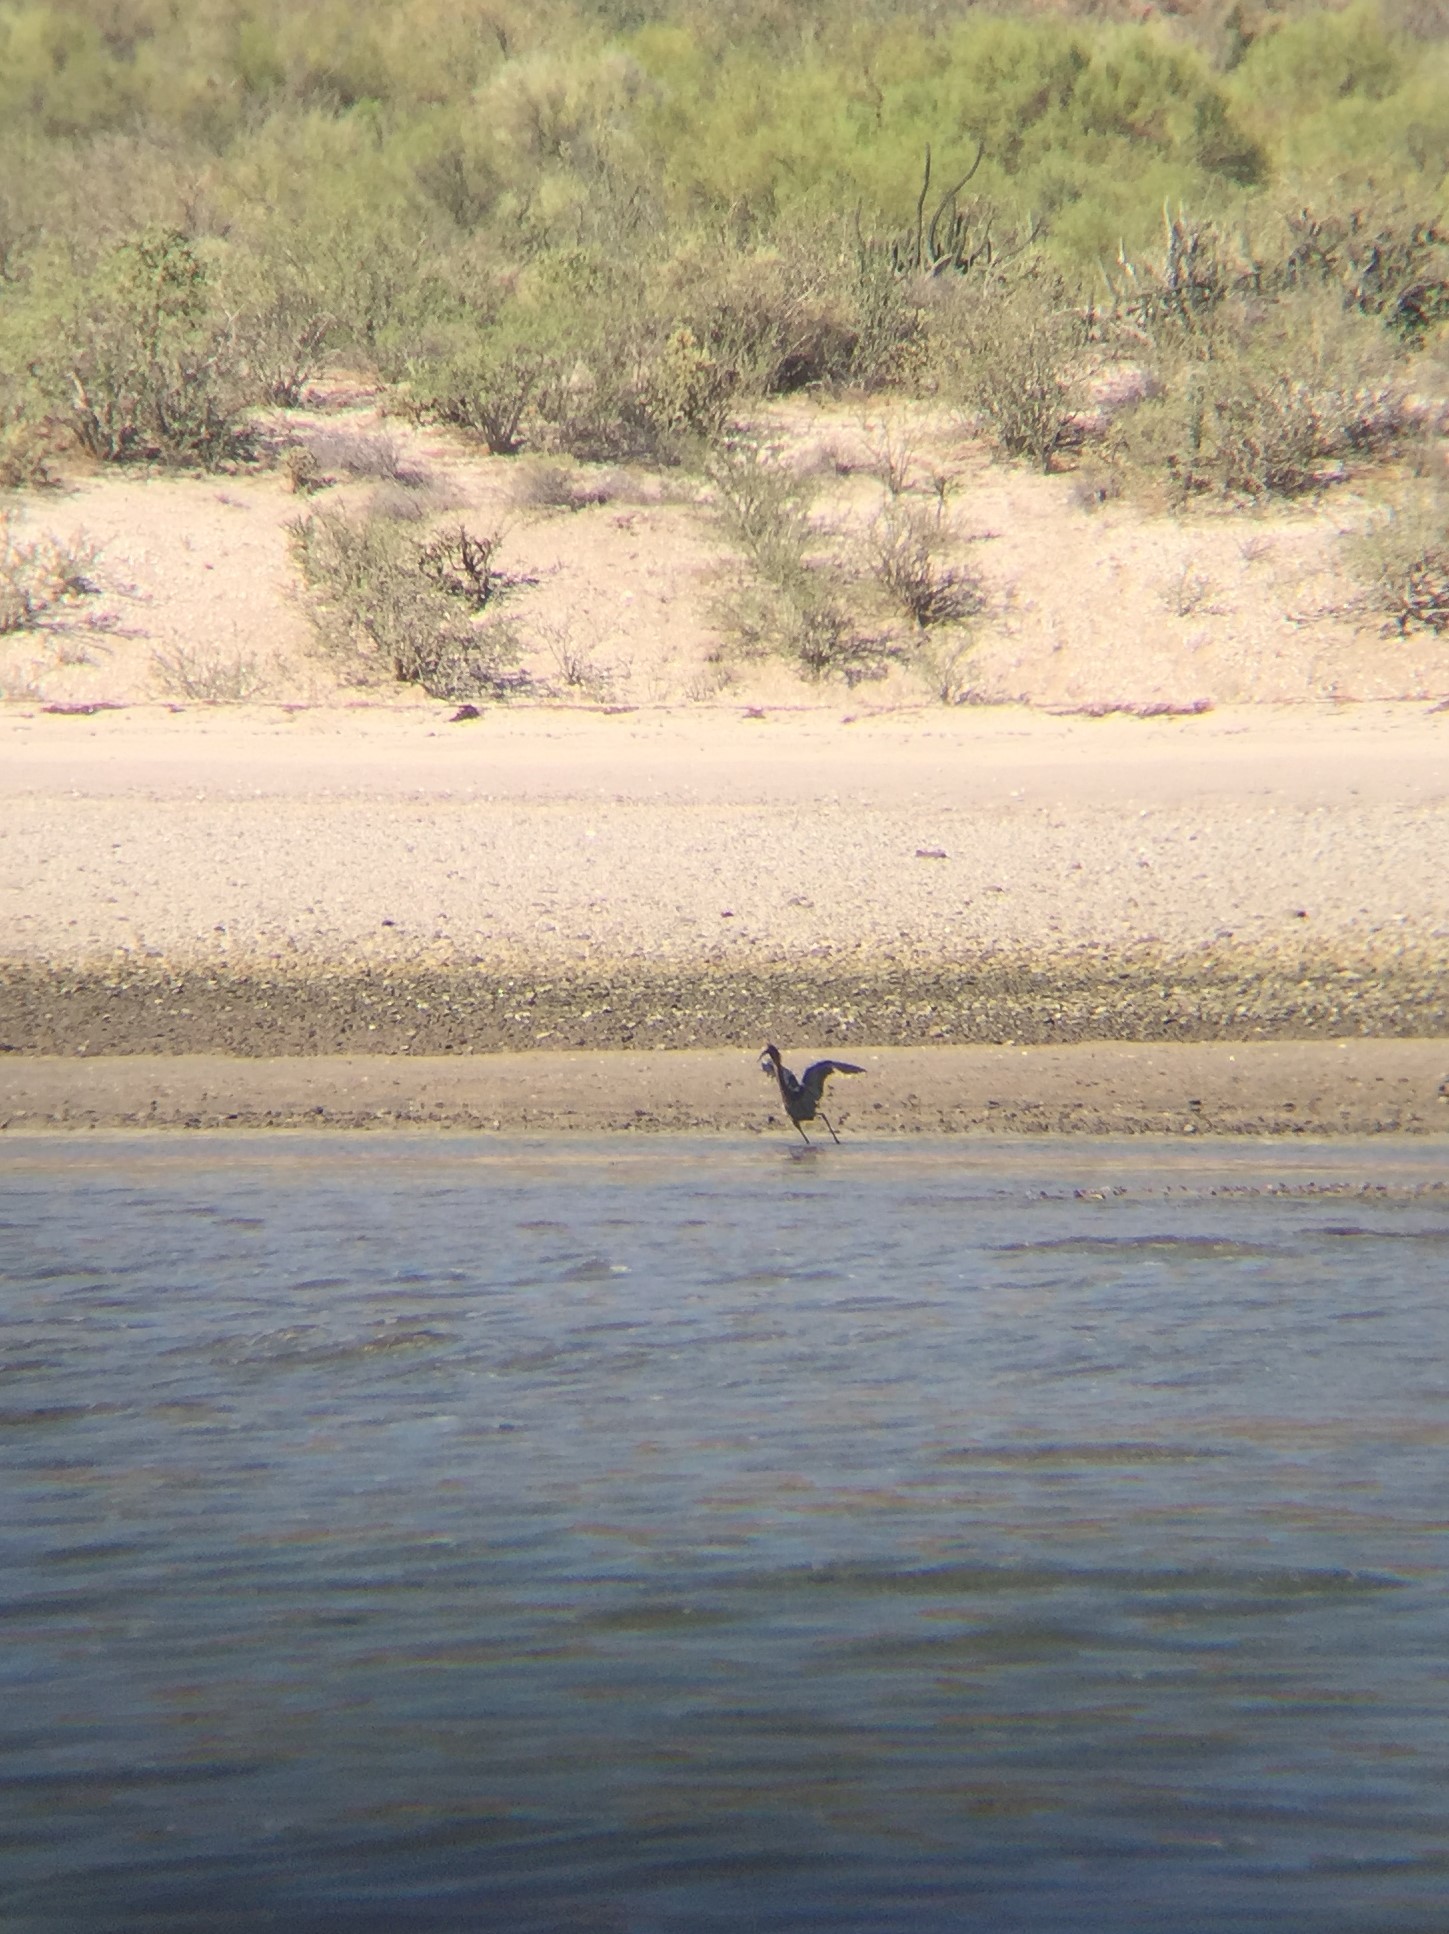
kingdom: Animalia
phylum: Chordata
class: Aves
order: Pelecaniformes
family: Ardeidae
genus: Egretta
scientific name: Egretta rufescens
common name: Reddish egret
